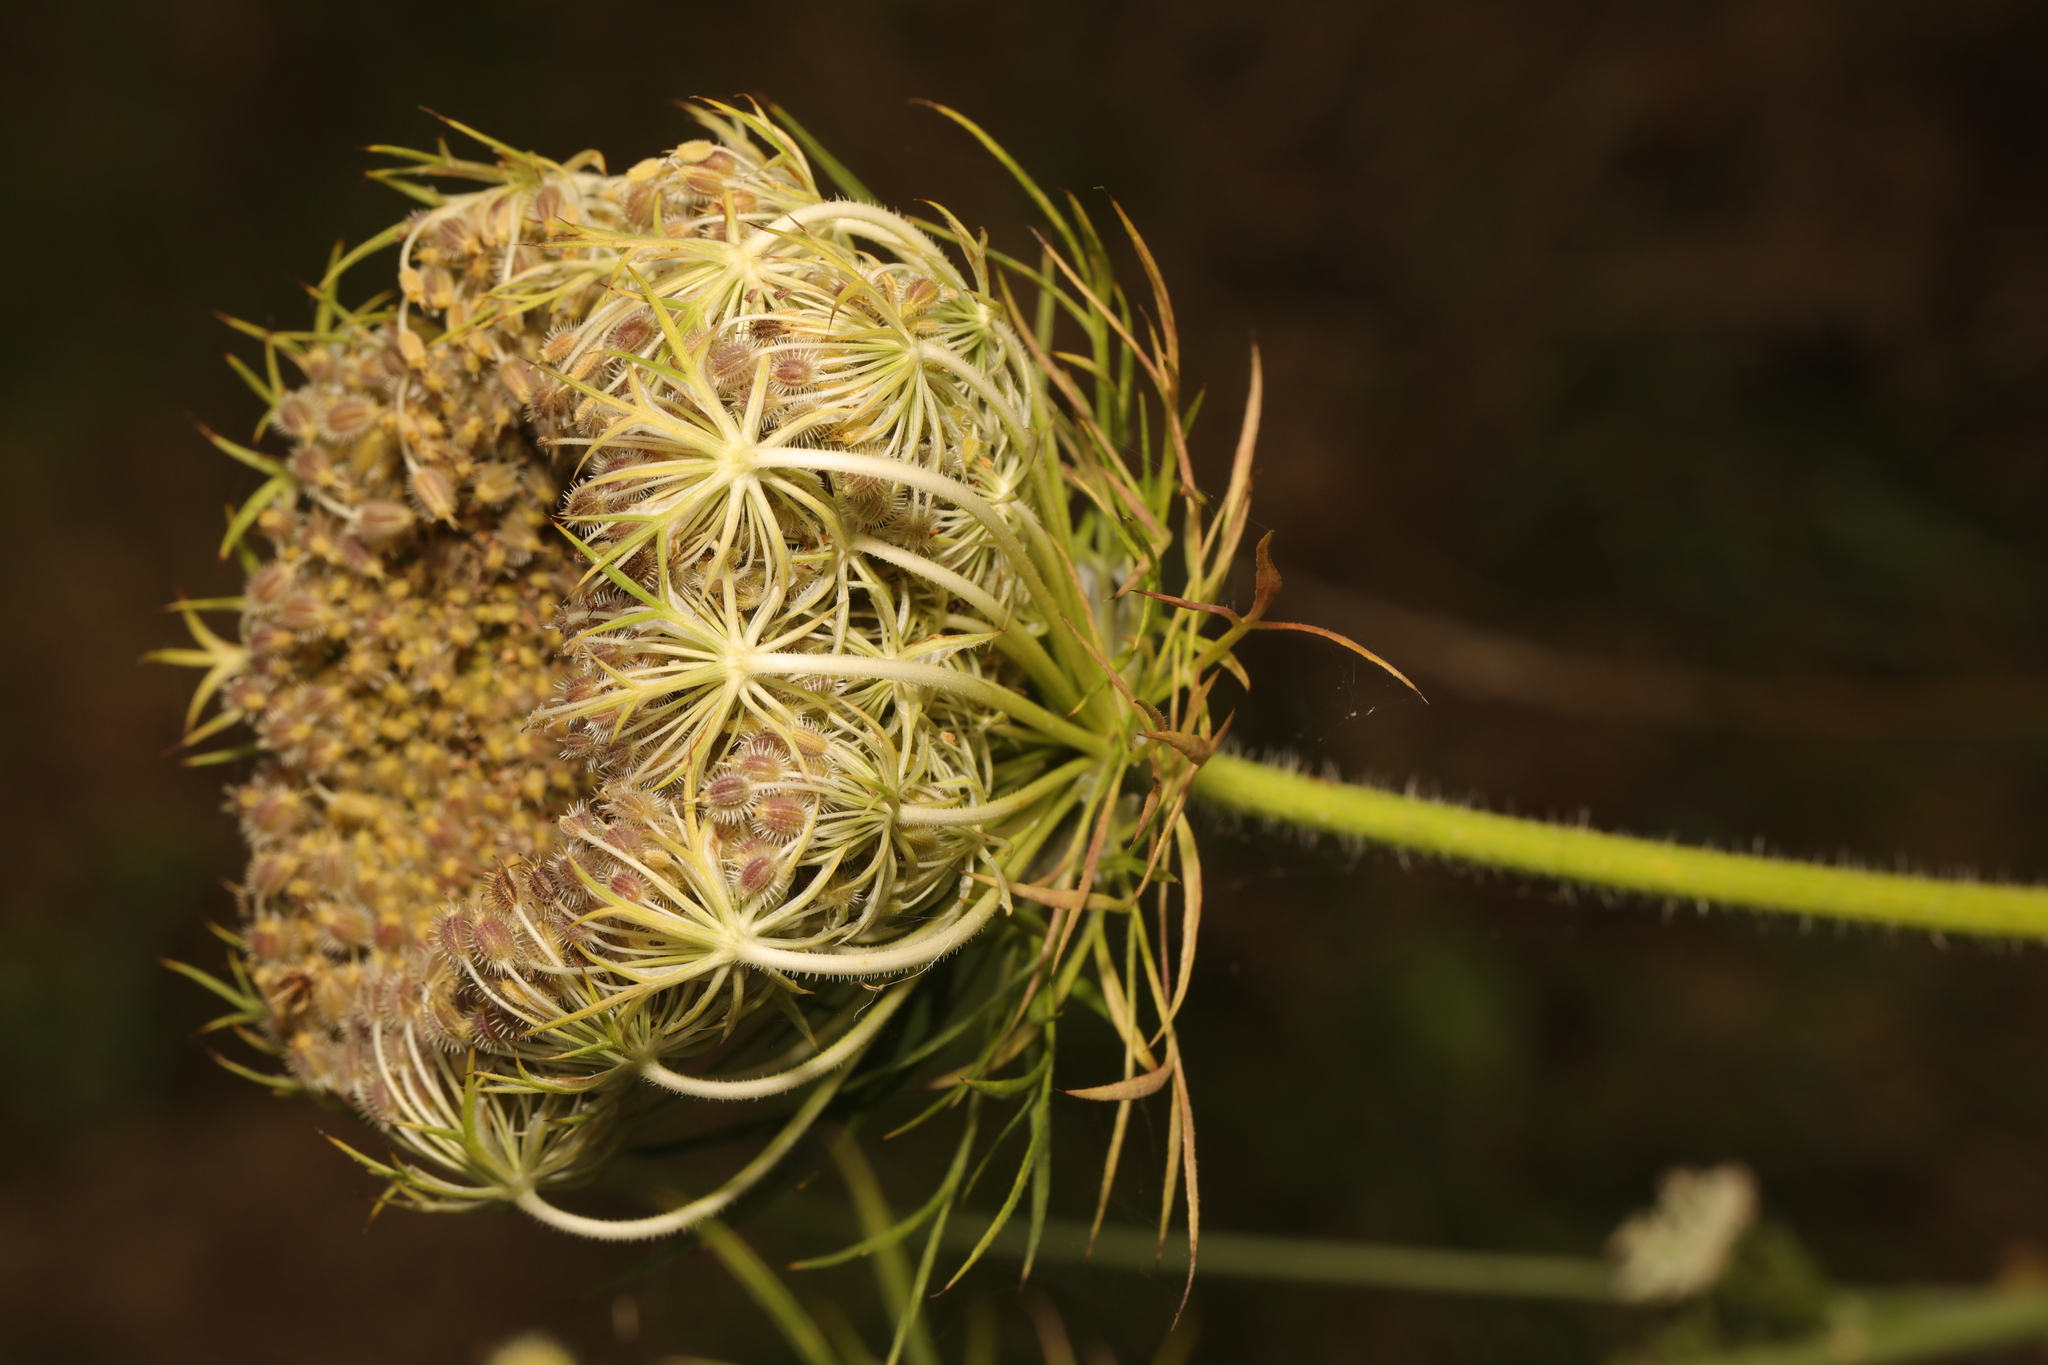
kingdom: Plantae
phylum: Tracheophyta
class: Magnoliopsida
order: Apiales
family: Apiaceae
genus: Daucus
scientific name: Daucus carota
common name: Wild carrot
